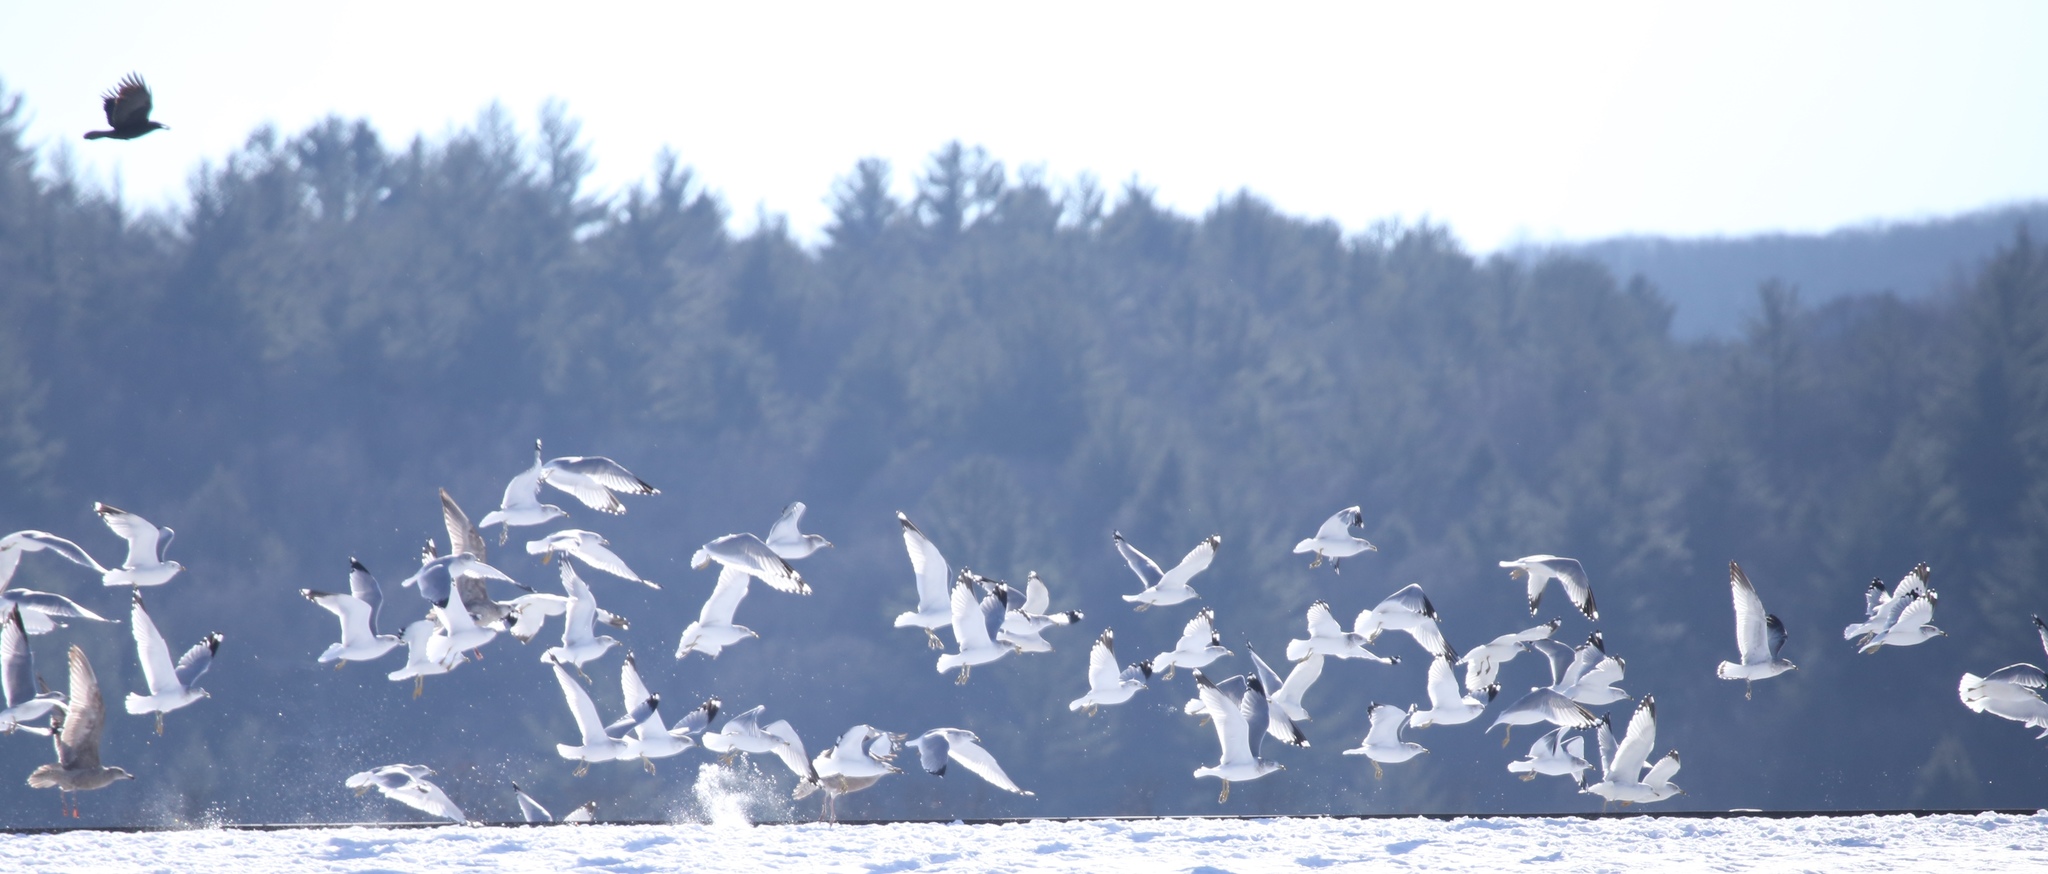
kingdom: Animalia
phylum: Chordata
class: Aves
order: Charadriiformes
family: Laridae
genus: Larus
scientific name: Larus delawarensis
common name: Ring-billed gull
